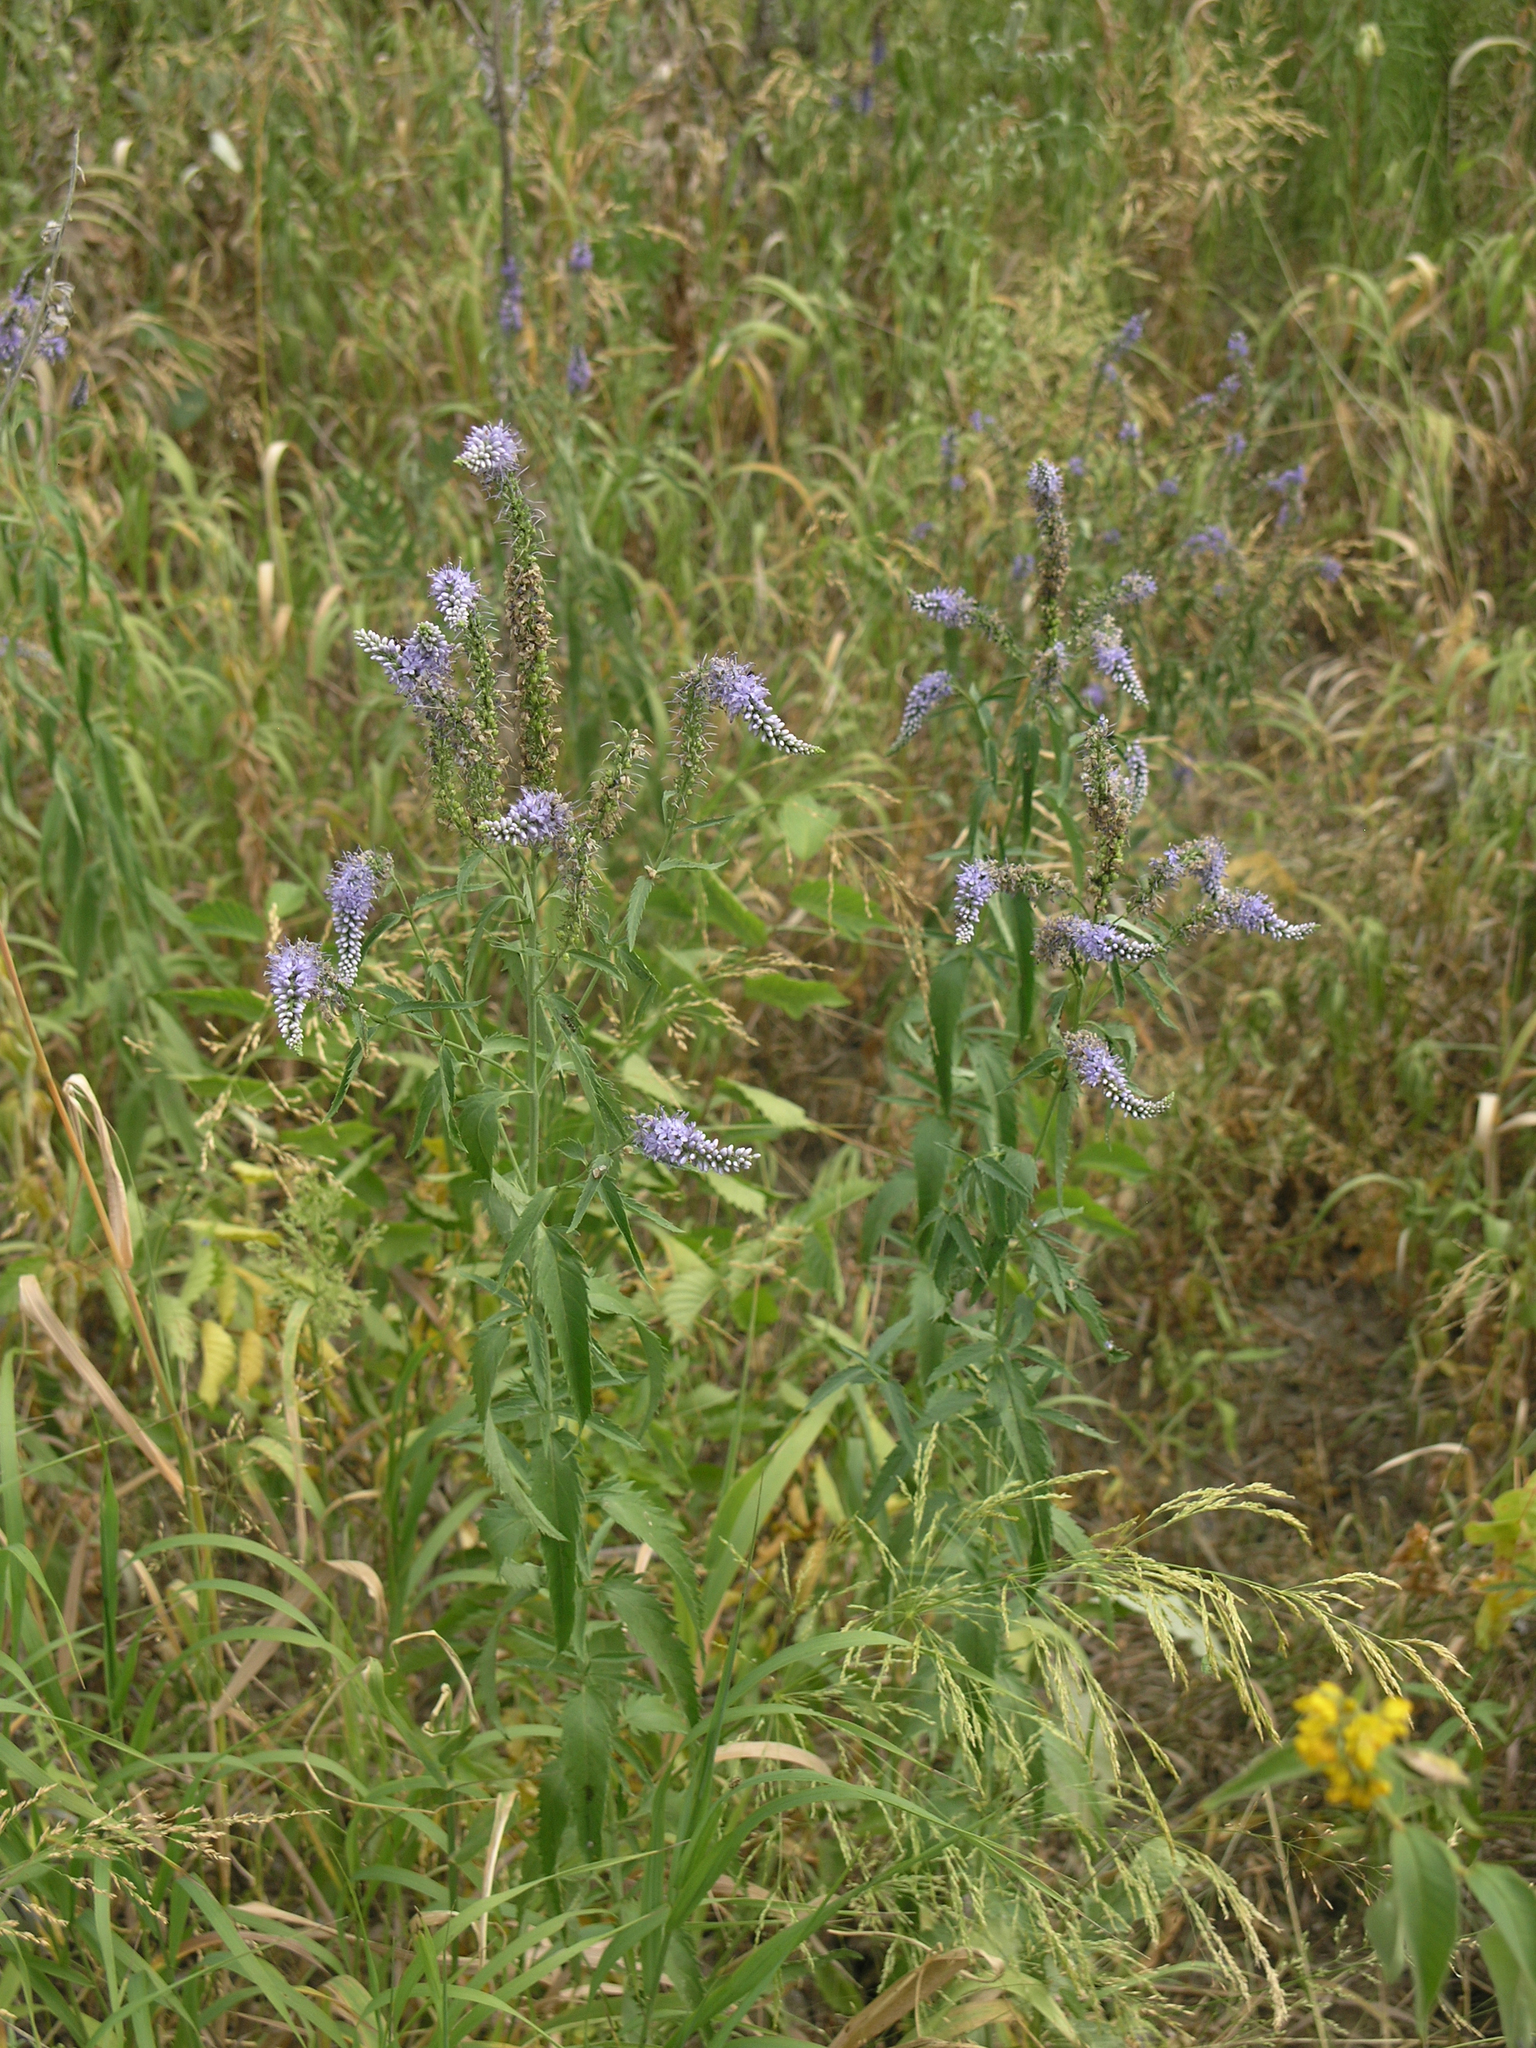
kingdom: Plantae
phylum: Tracheophyta
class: Magnoliopsida
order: Lamiales
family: Plantaginaceae
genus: Veronica
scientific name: Veronica longifolia
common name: Garden speedwell
